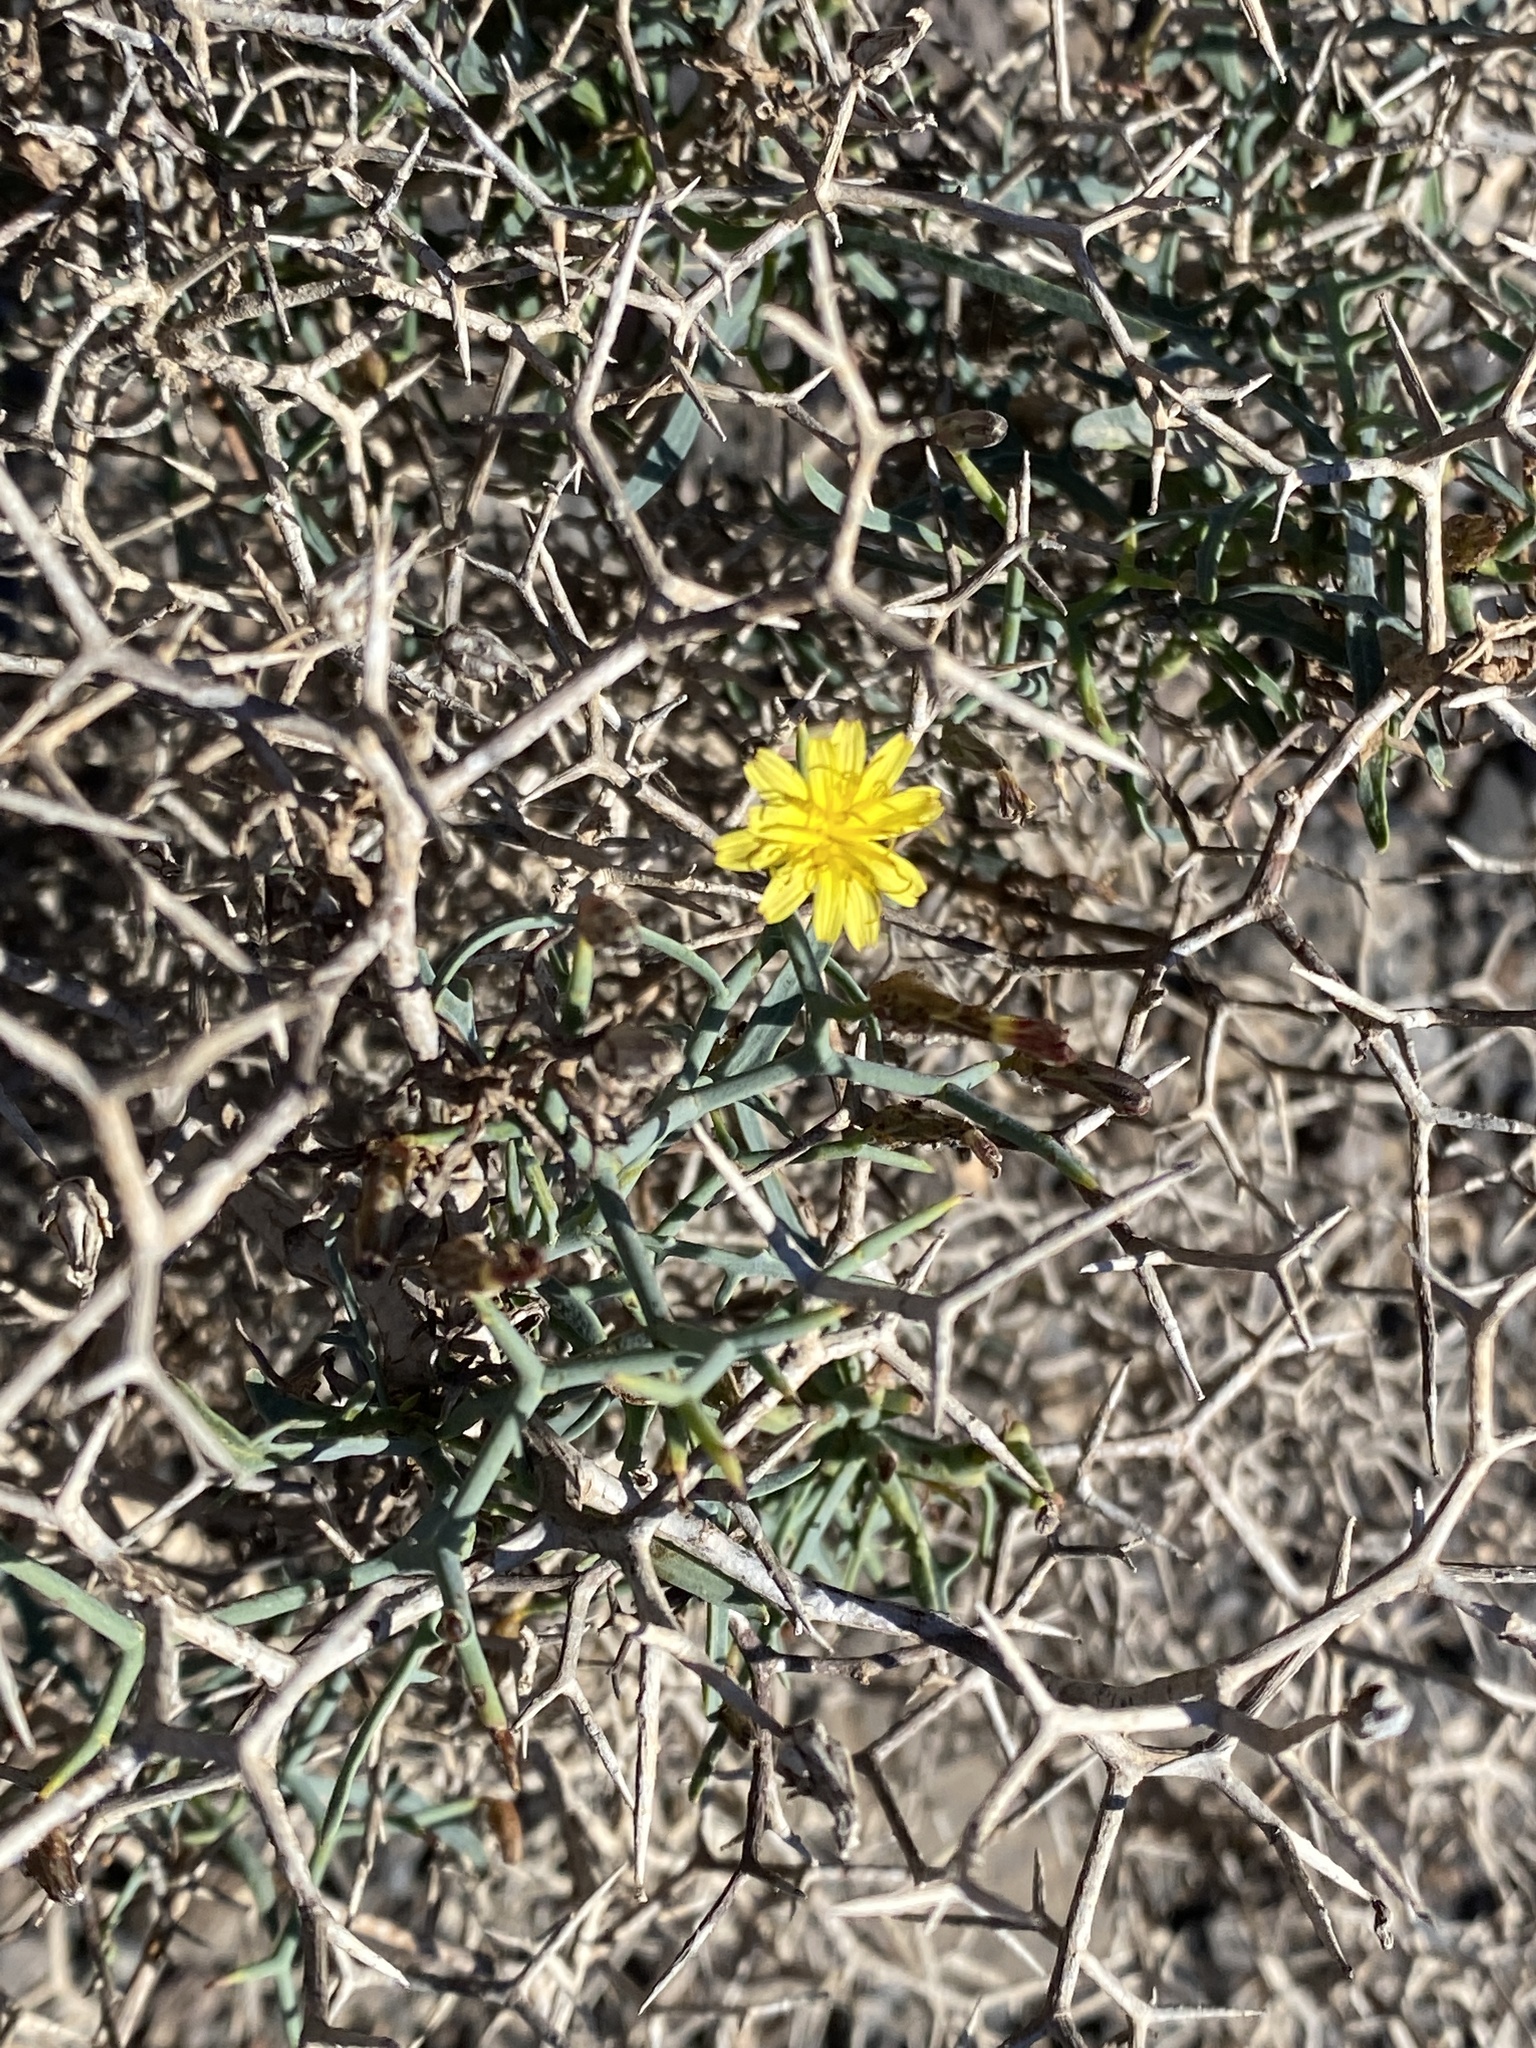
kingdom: Plantae
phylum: Tracheophyta
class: Magnoliopsida
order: Asterales
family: Asteraceae
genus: Launaea
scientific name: Launaea arborescens
